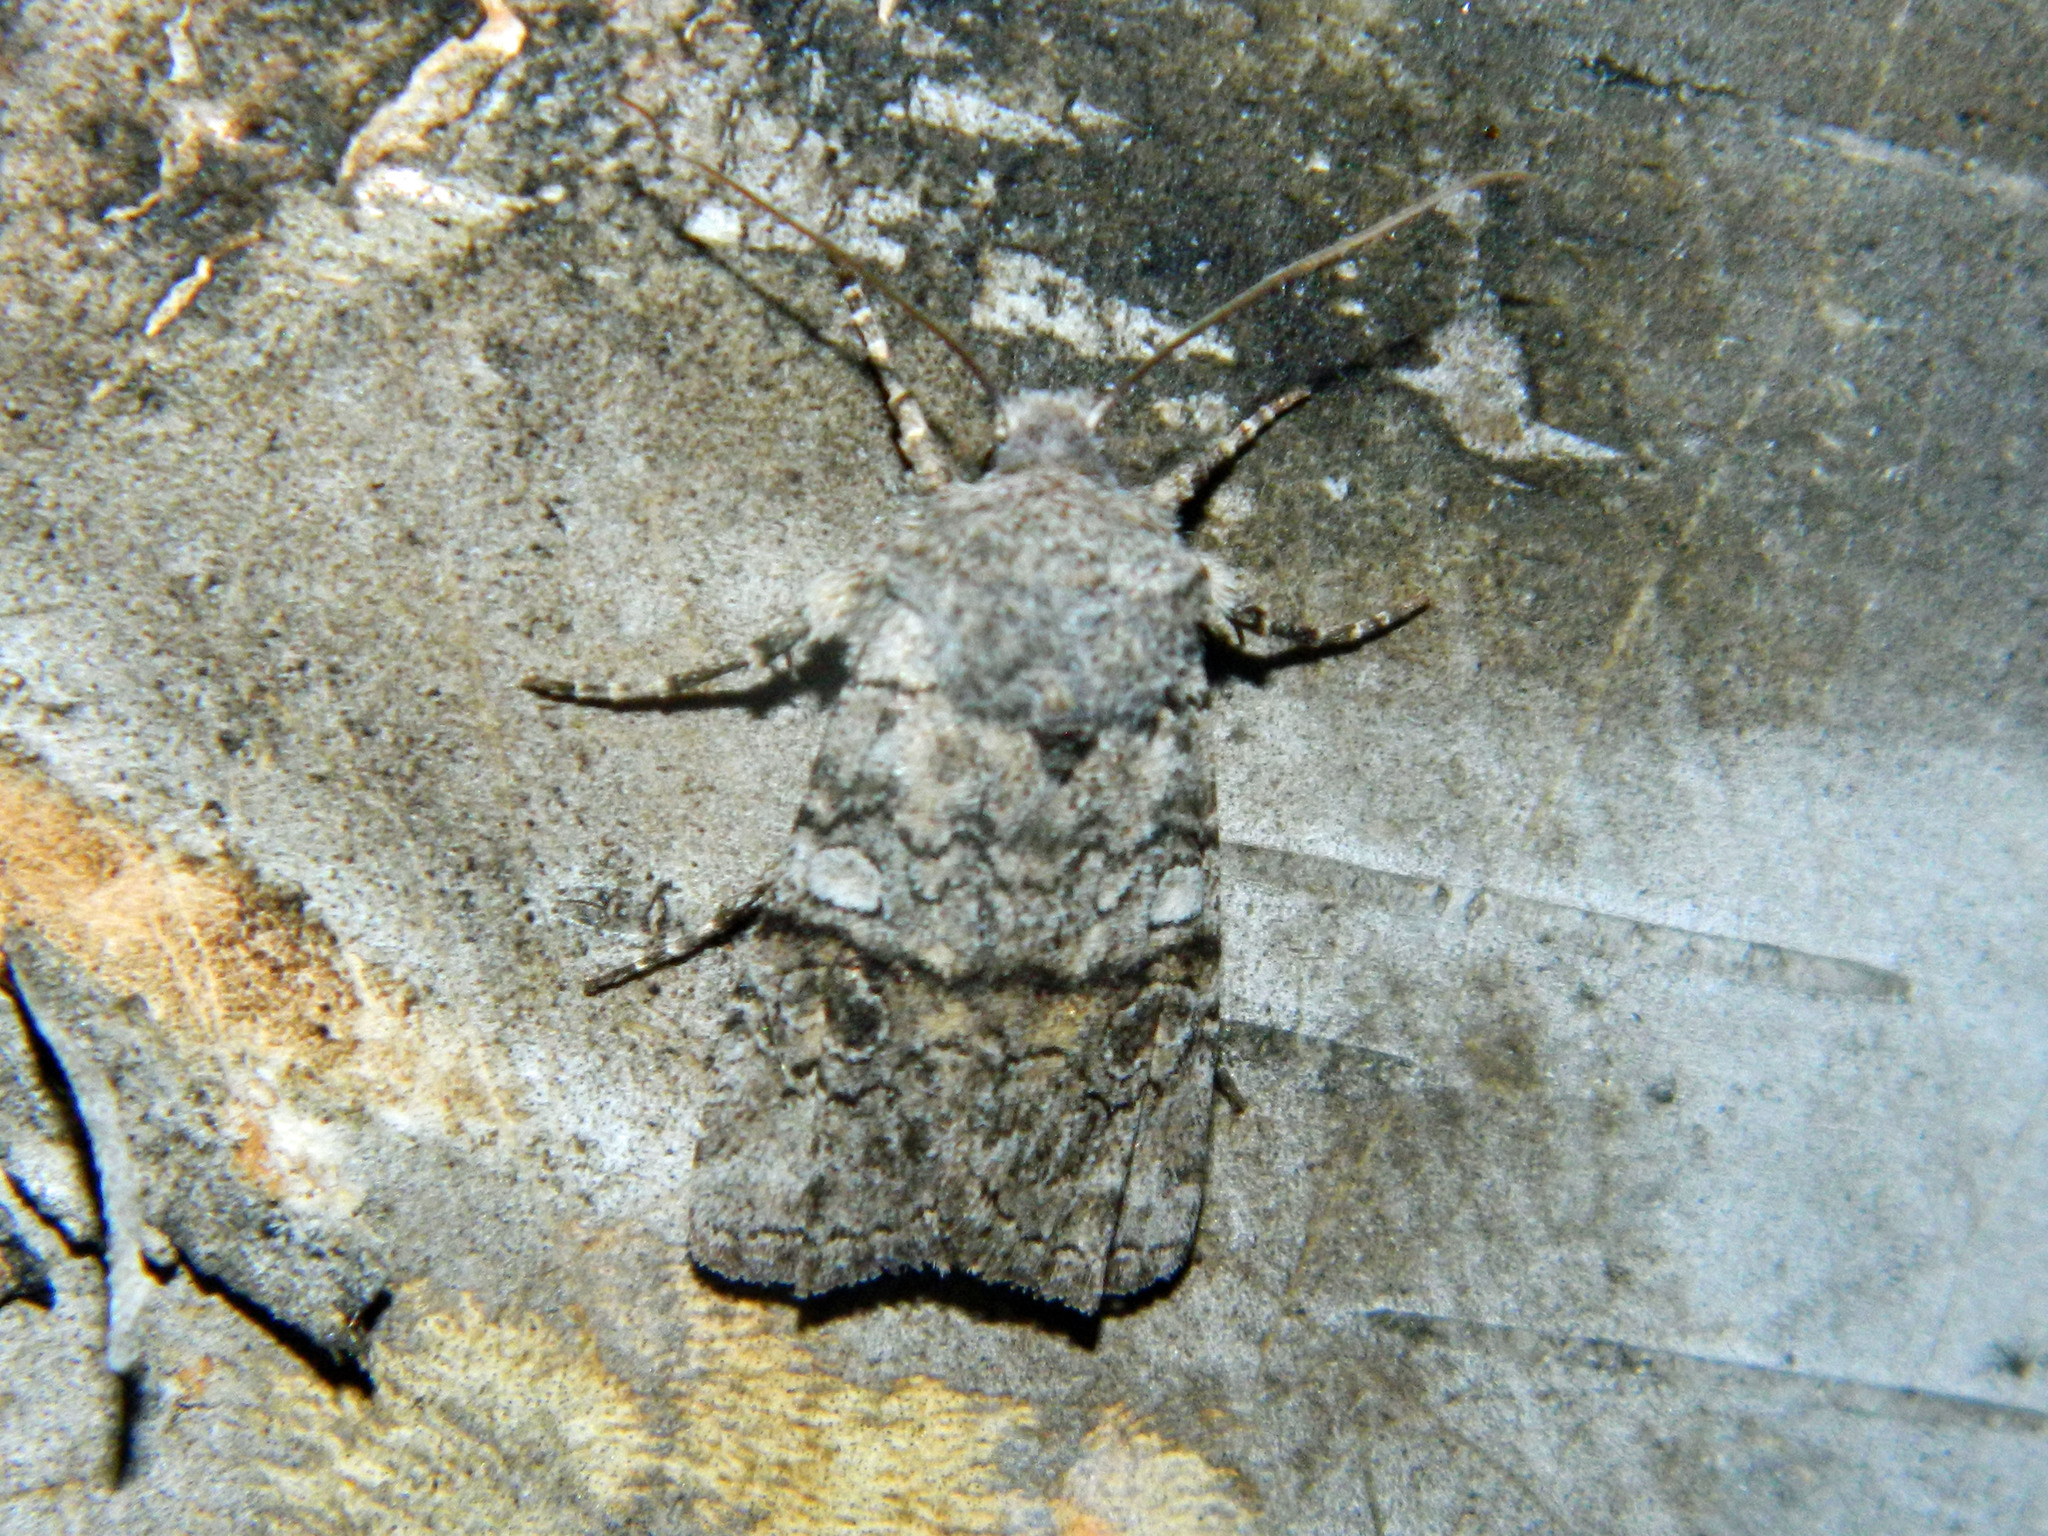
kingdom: Animalia
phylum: Arthropoda
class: Insecta
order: Lepidoptera
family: Noctuidae
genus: Litholomia
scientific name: Litholomia napaea
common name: False pinion moth
